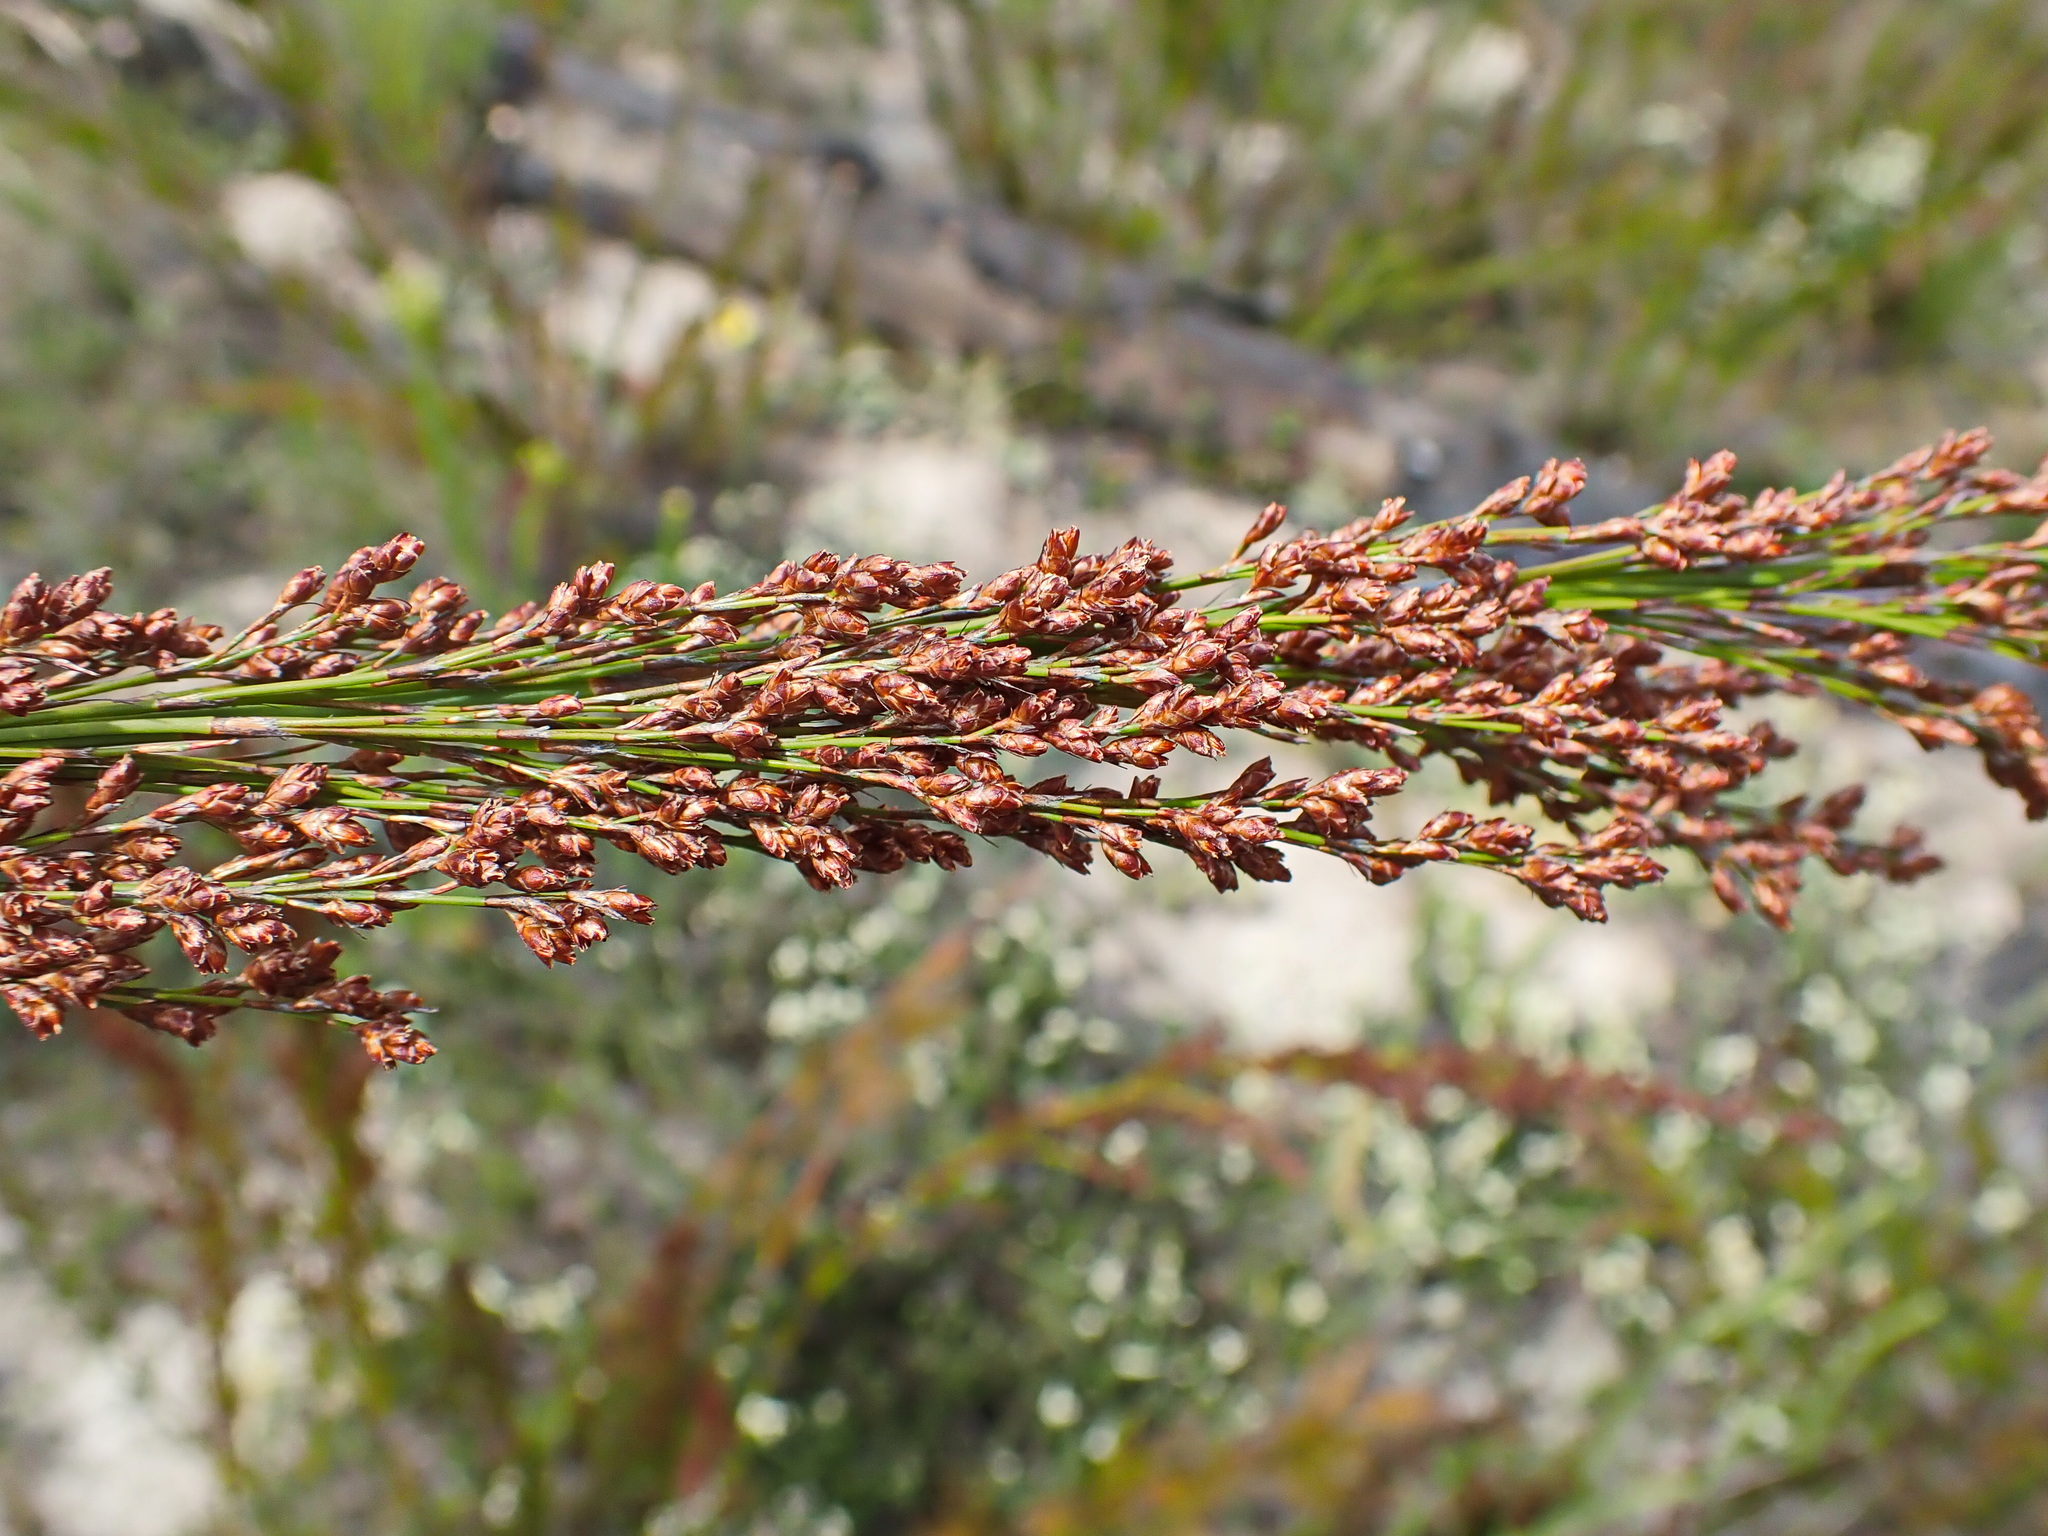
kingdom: Plantae
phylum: Tracheophyta
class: Liliopsida
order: Poales
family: Restionaceae
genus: Restio
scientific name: Restio paniculatus
